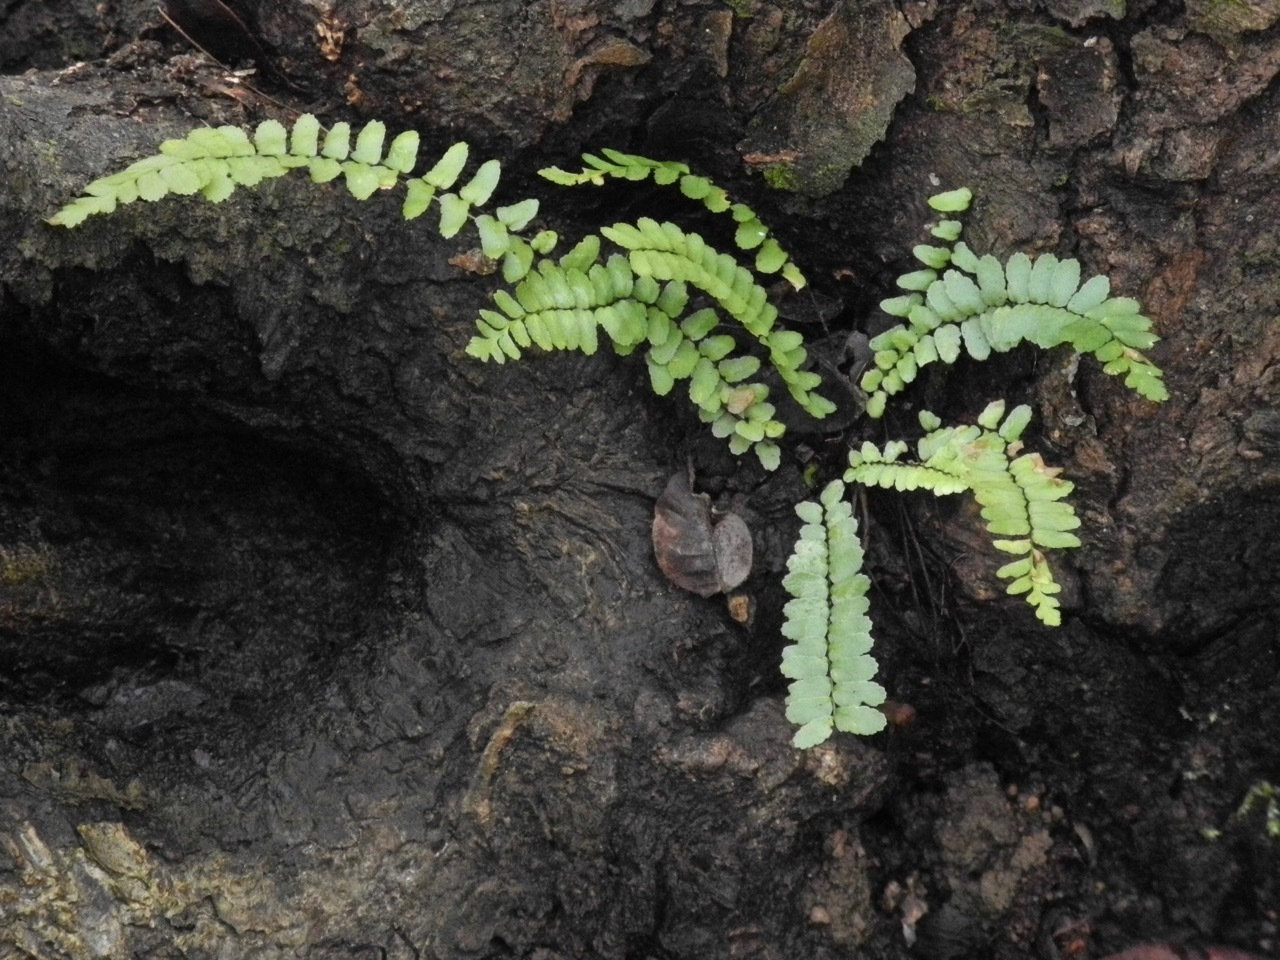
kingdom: Plantae
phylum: Tracheophyta
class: Polypodiopsida
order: Polypodiales
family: Aspleniaceae
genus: Asplenium
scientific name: Asplenium platyneuron
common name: Ebony spleenwort
